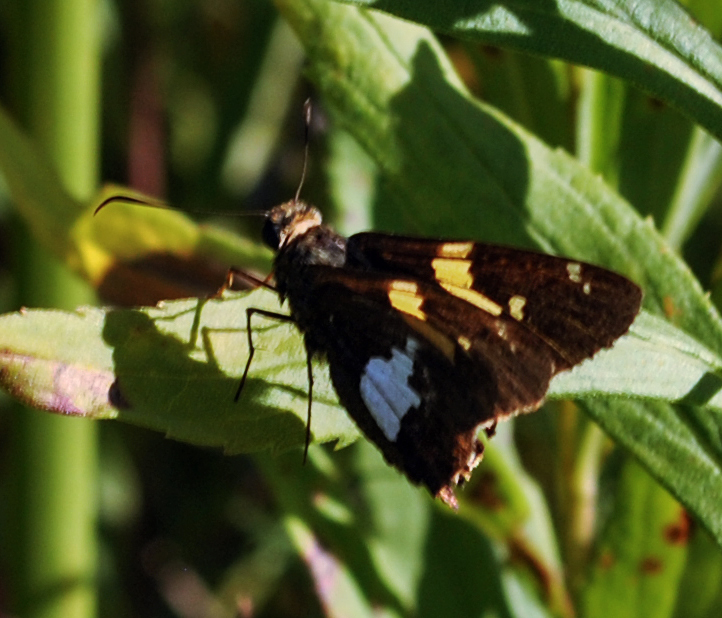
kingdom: Animalia
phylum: Arthropoda
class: Insecta
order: Lepidoptera
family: Hesperiidae
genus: Epargyreus
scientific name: Epargyreus clarus
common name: Silver-spotted skipper
